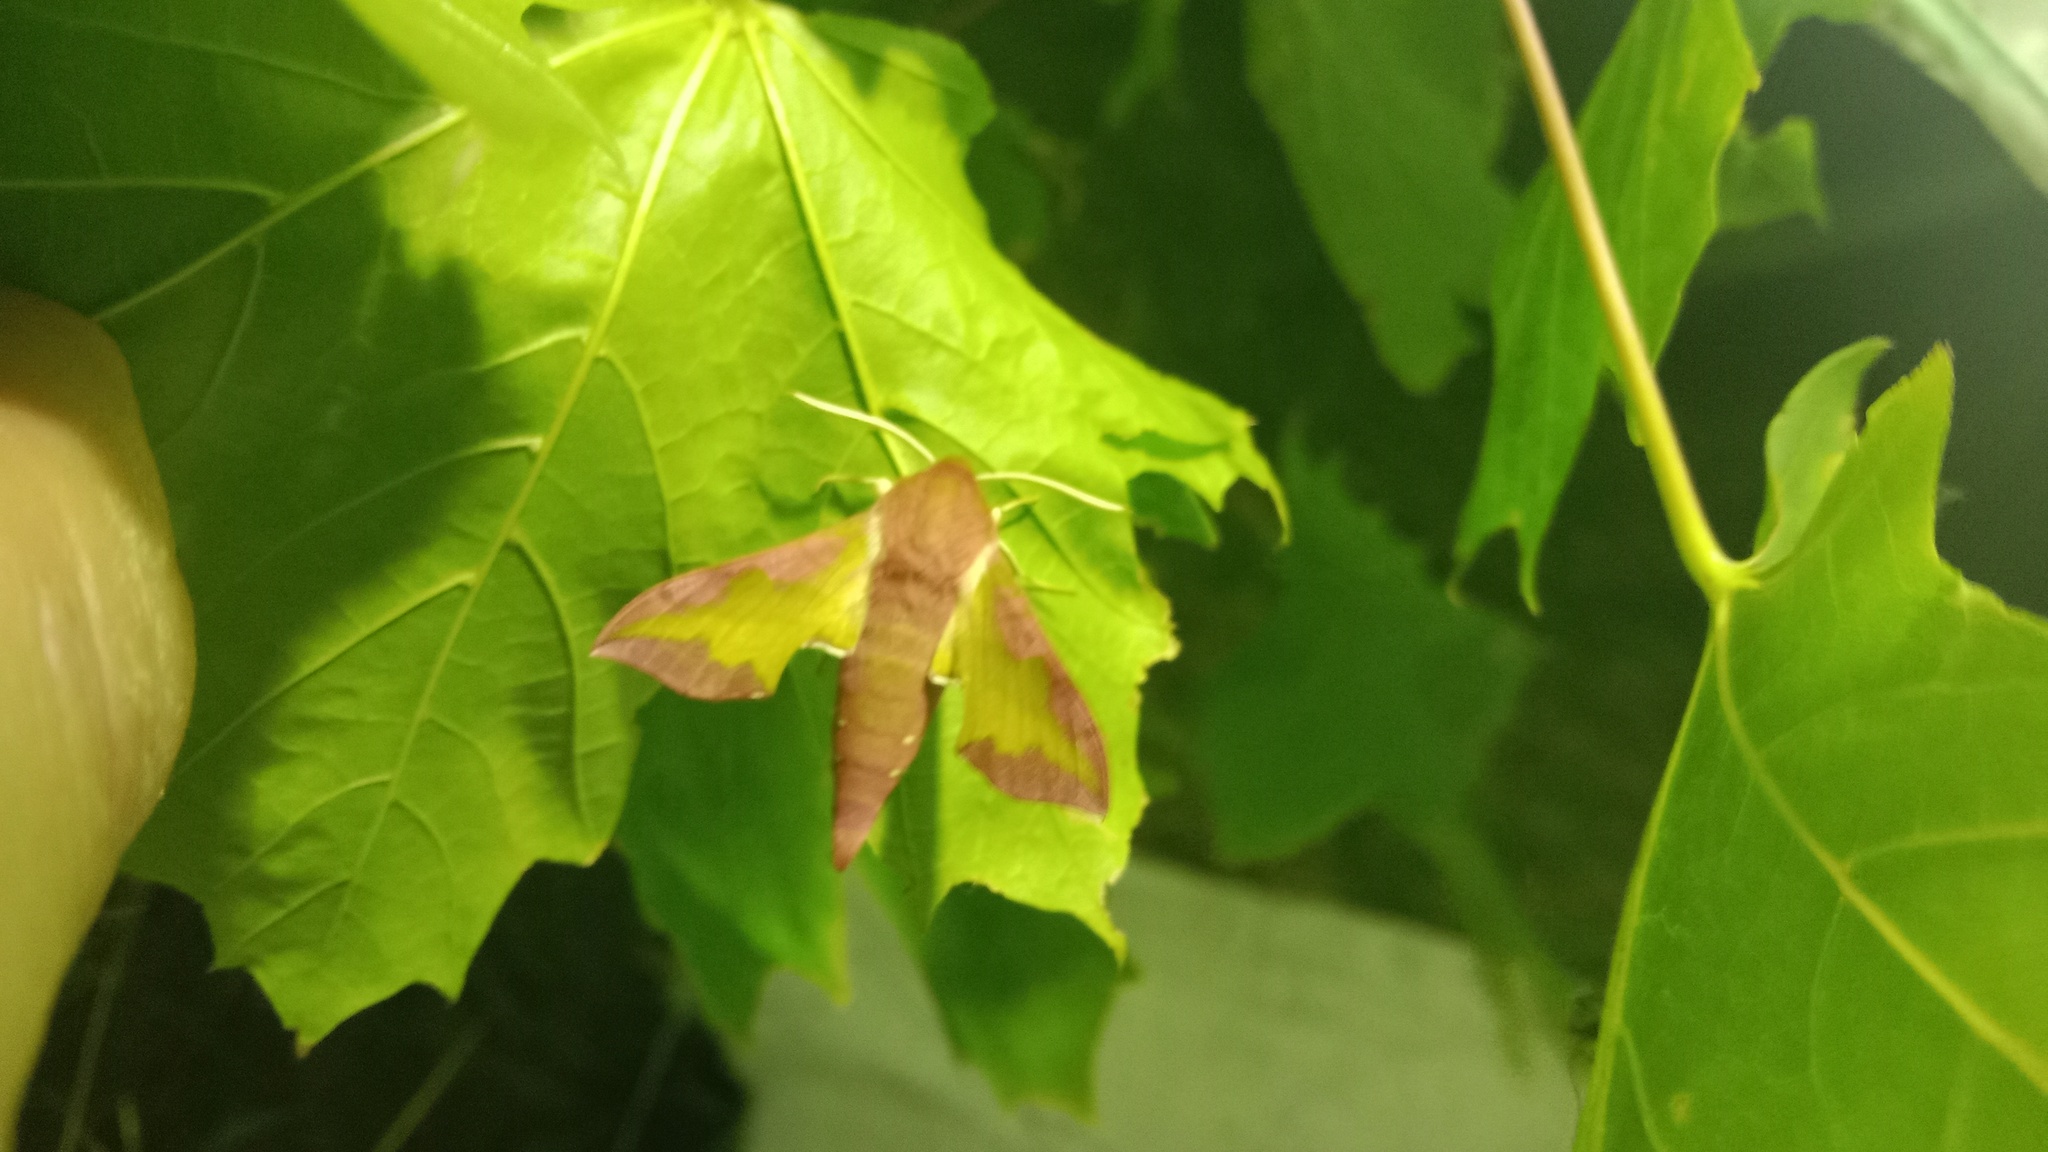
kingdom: Animalia
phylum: Arthropoda
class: Insecta
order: Lepidoptera
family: Sphingidae
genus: Deilephila
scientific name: Deilephila porcellus
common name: Small elephant hawk-moth
